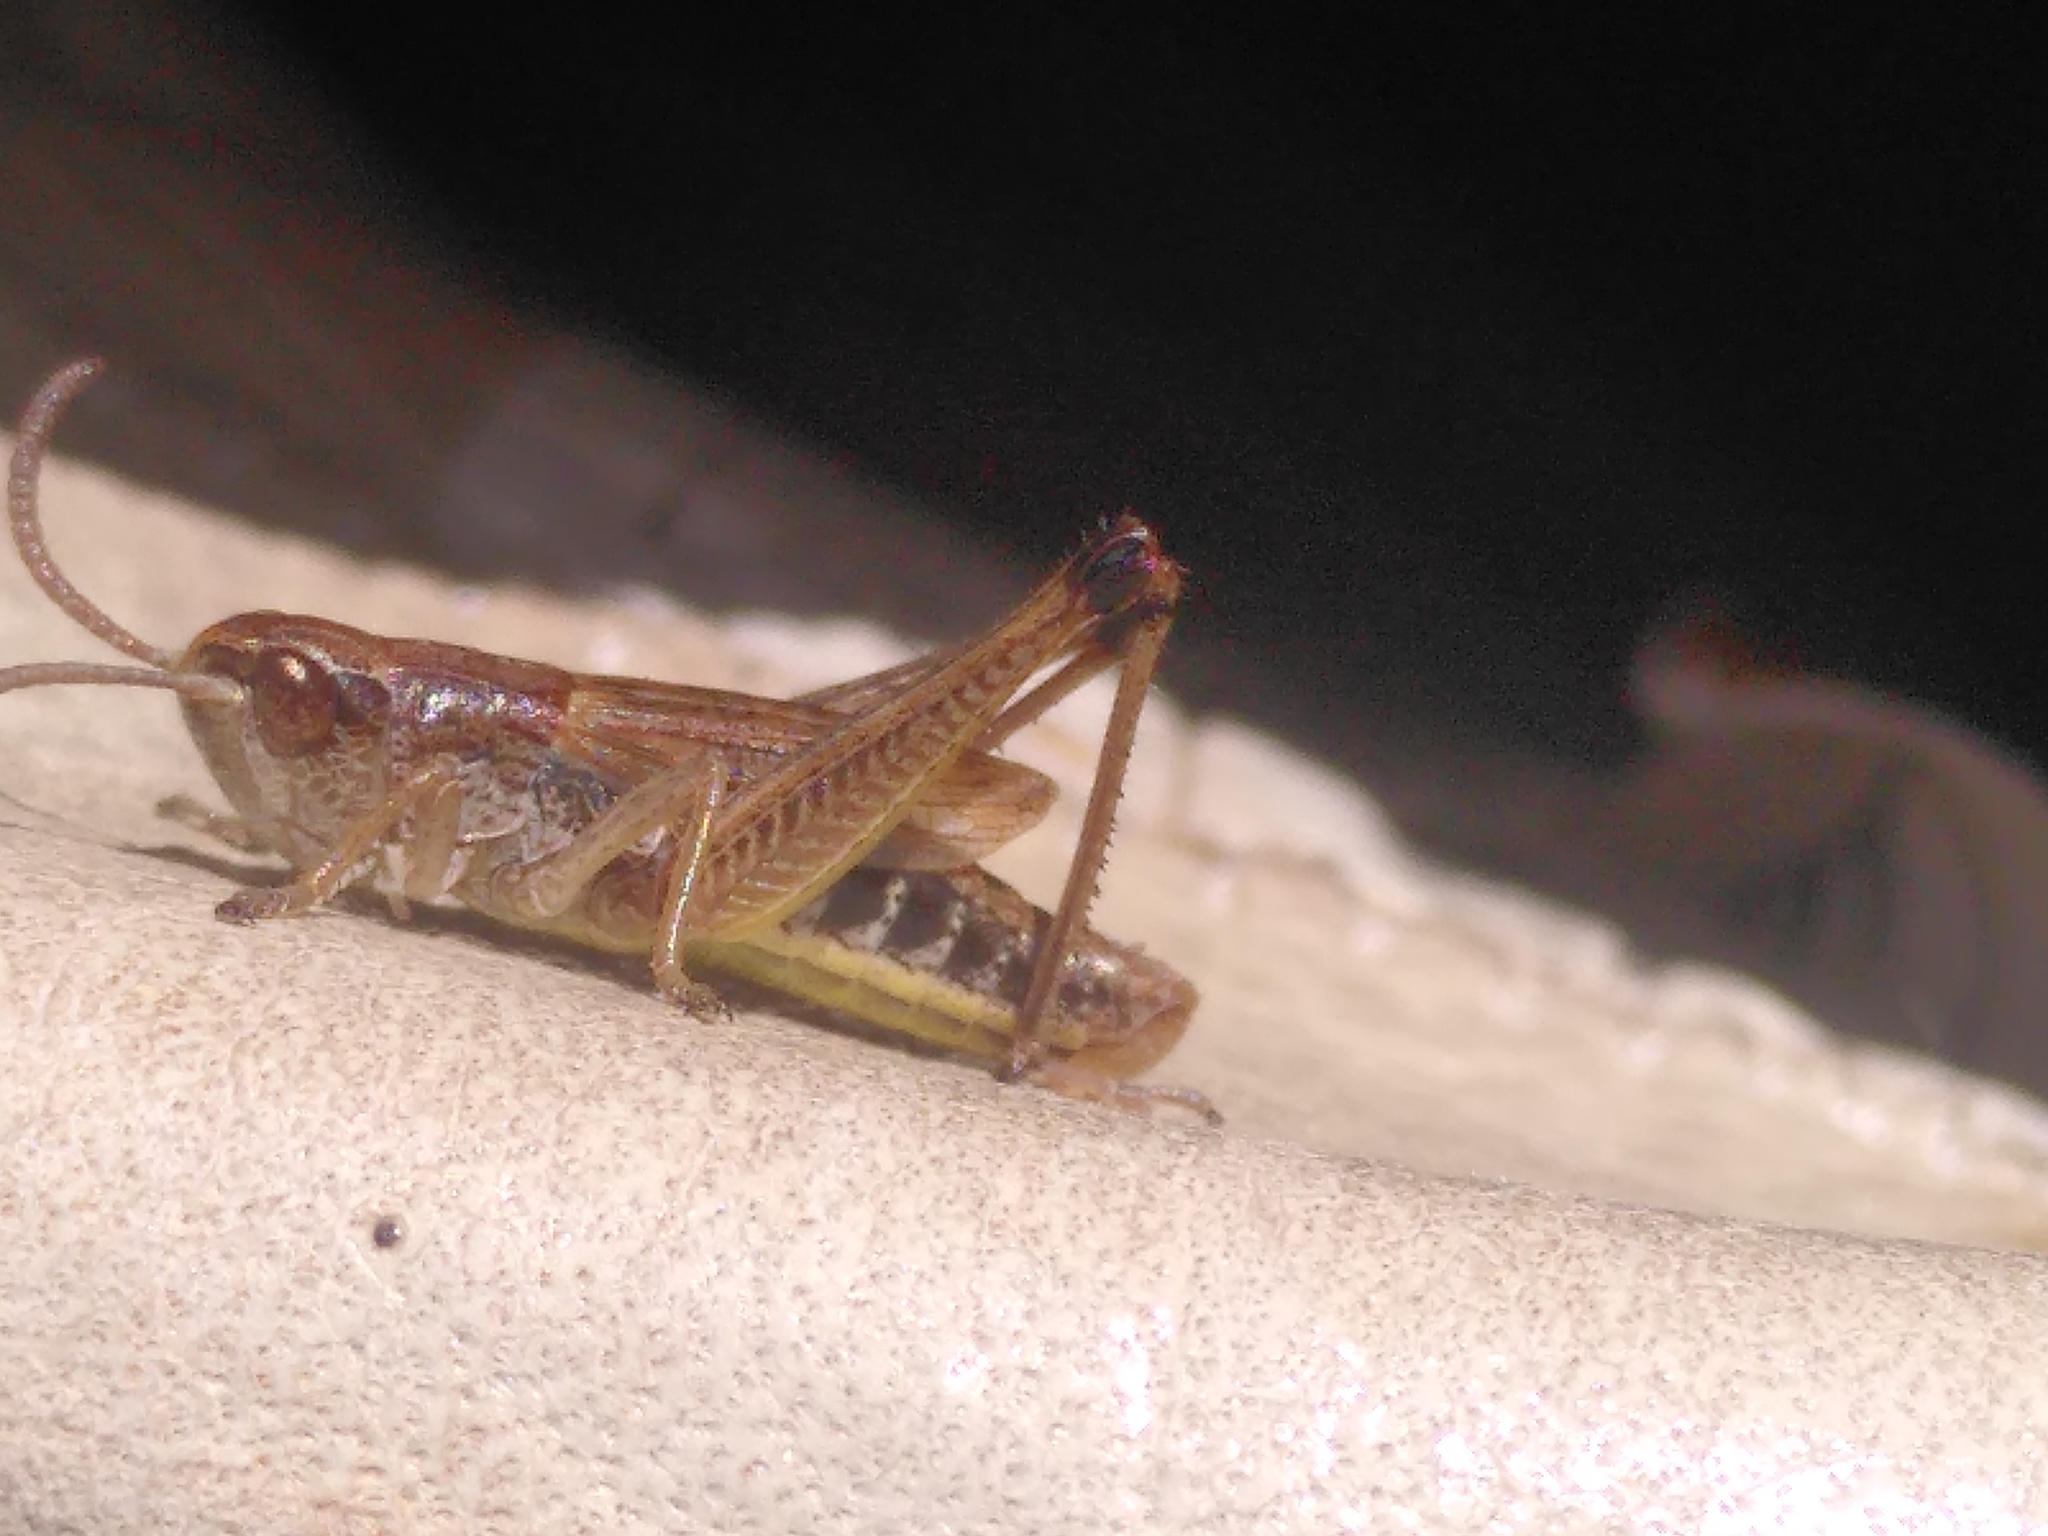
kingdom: Animalia
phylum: Arthropoda
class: Insecta
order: Orthoptera
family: Acrididae
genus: Pseudochorthippus
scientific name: Pseudochorthippus parallelus
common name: Meadow grasshopper
